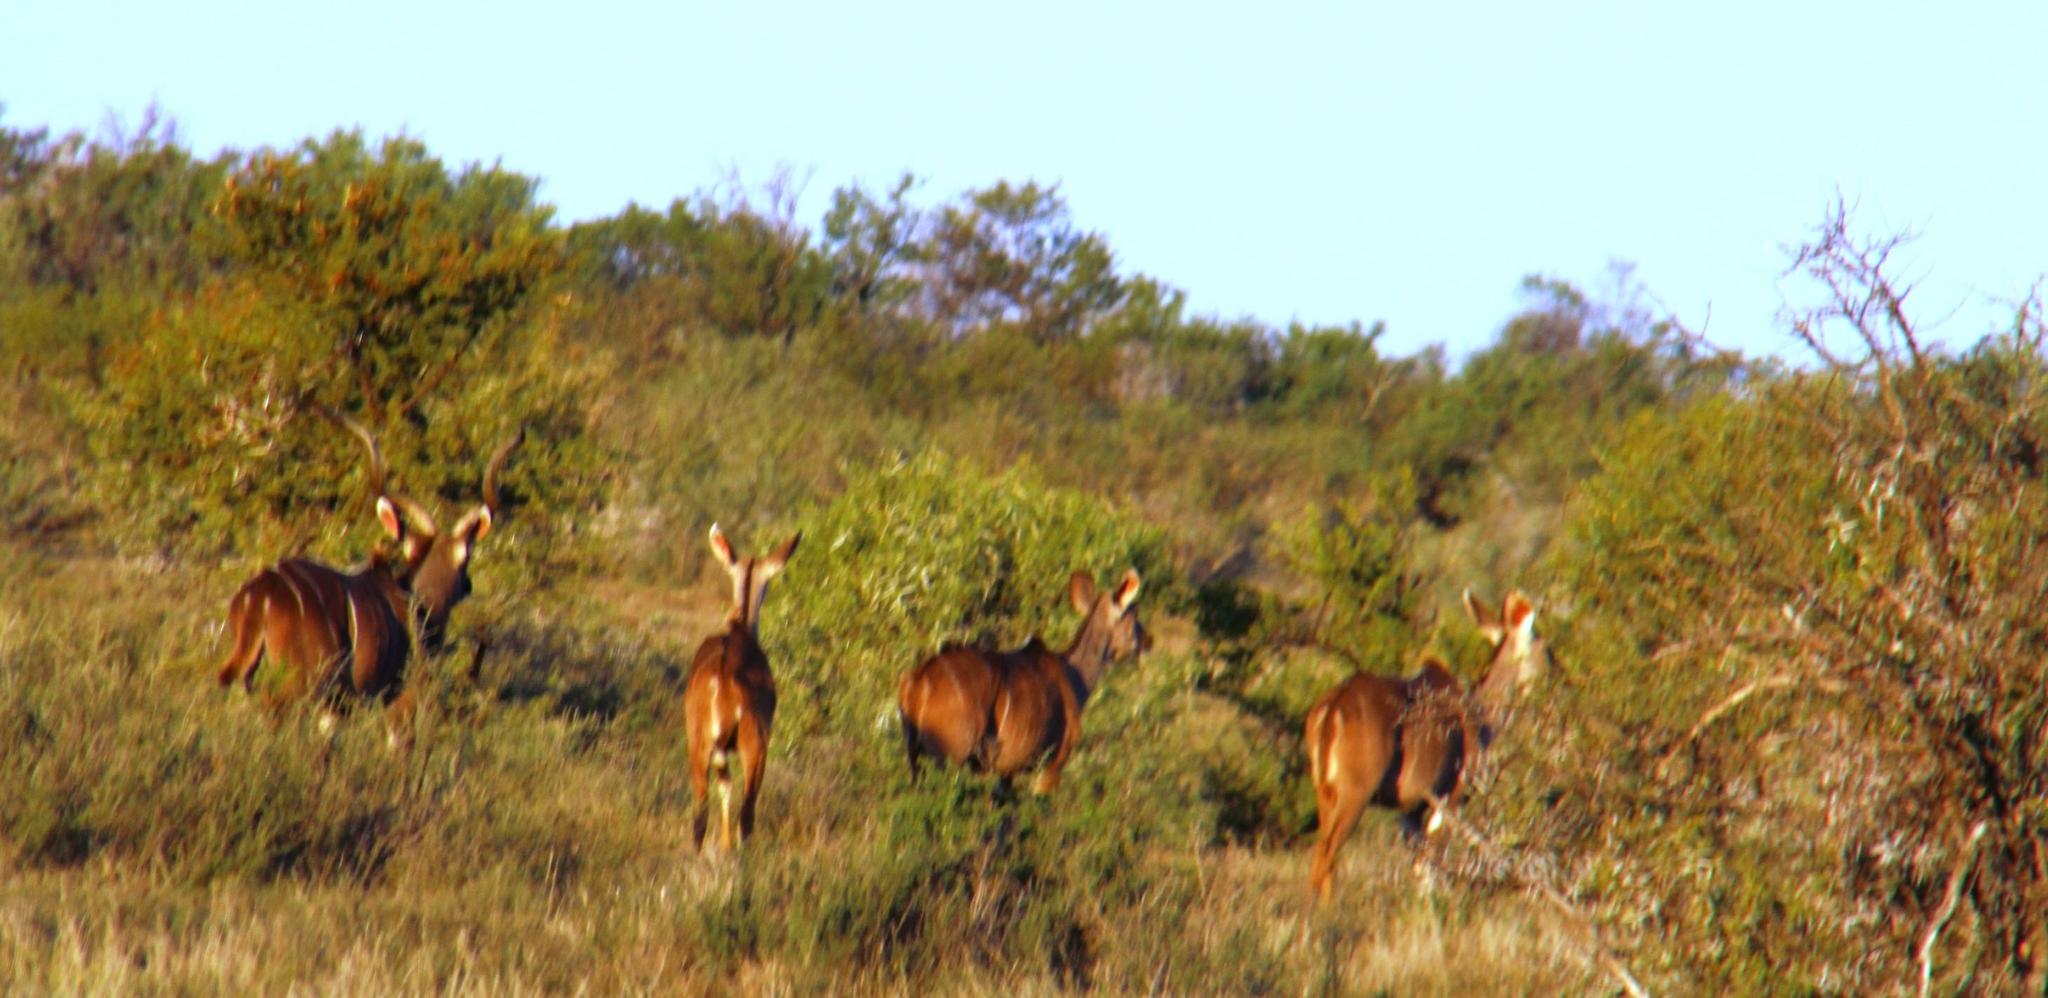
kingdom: Animalia
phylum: Chordata
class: Mammalia
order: Artiodactyla
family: Bovidae
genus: Tragelaphus
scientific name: Tragelaphus strepsiceros
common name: Greater kudu
